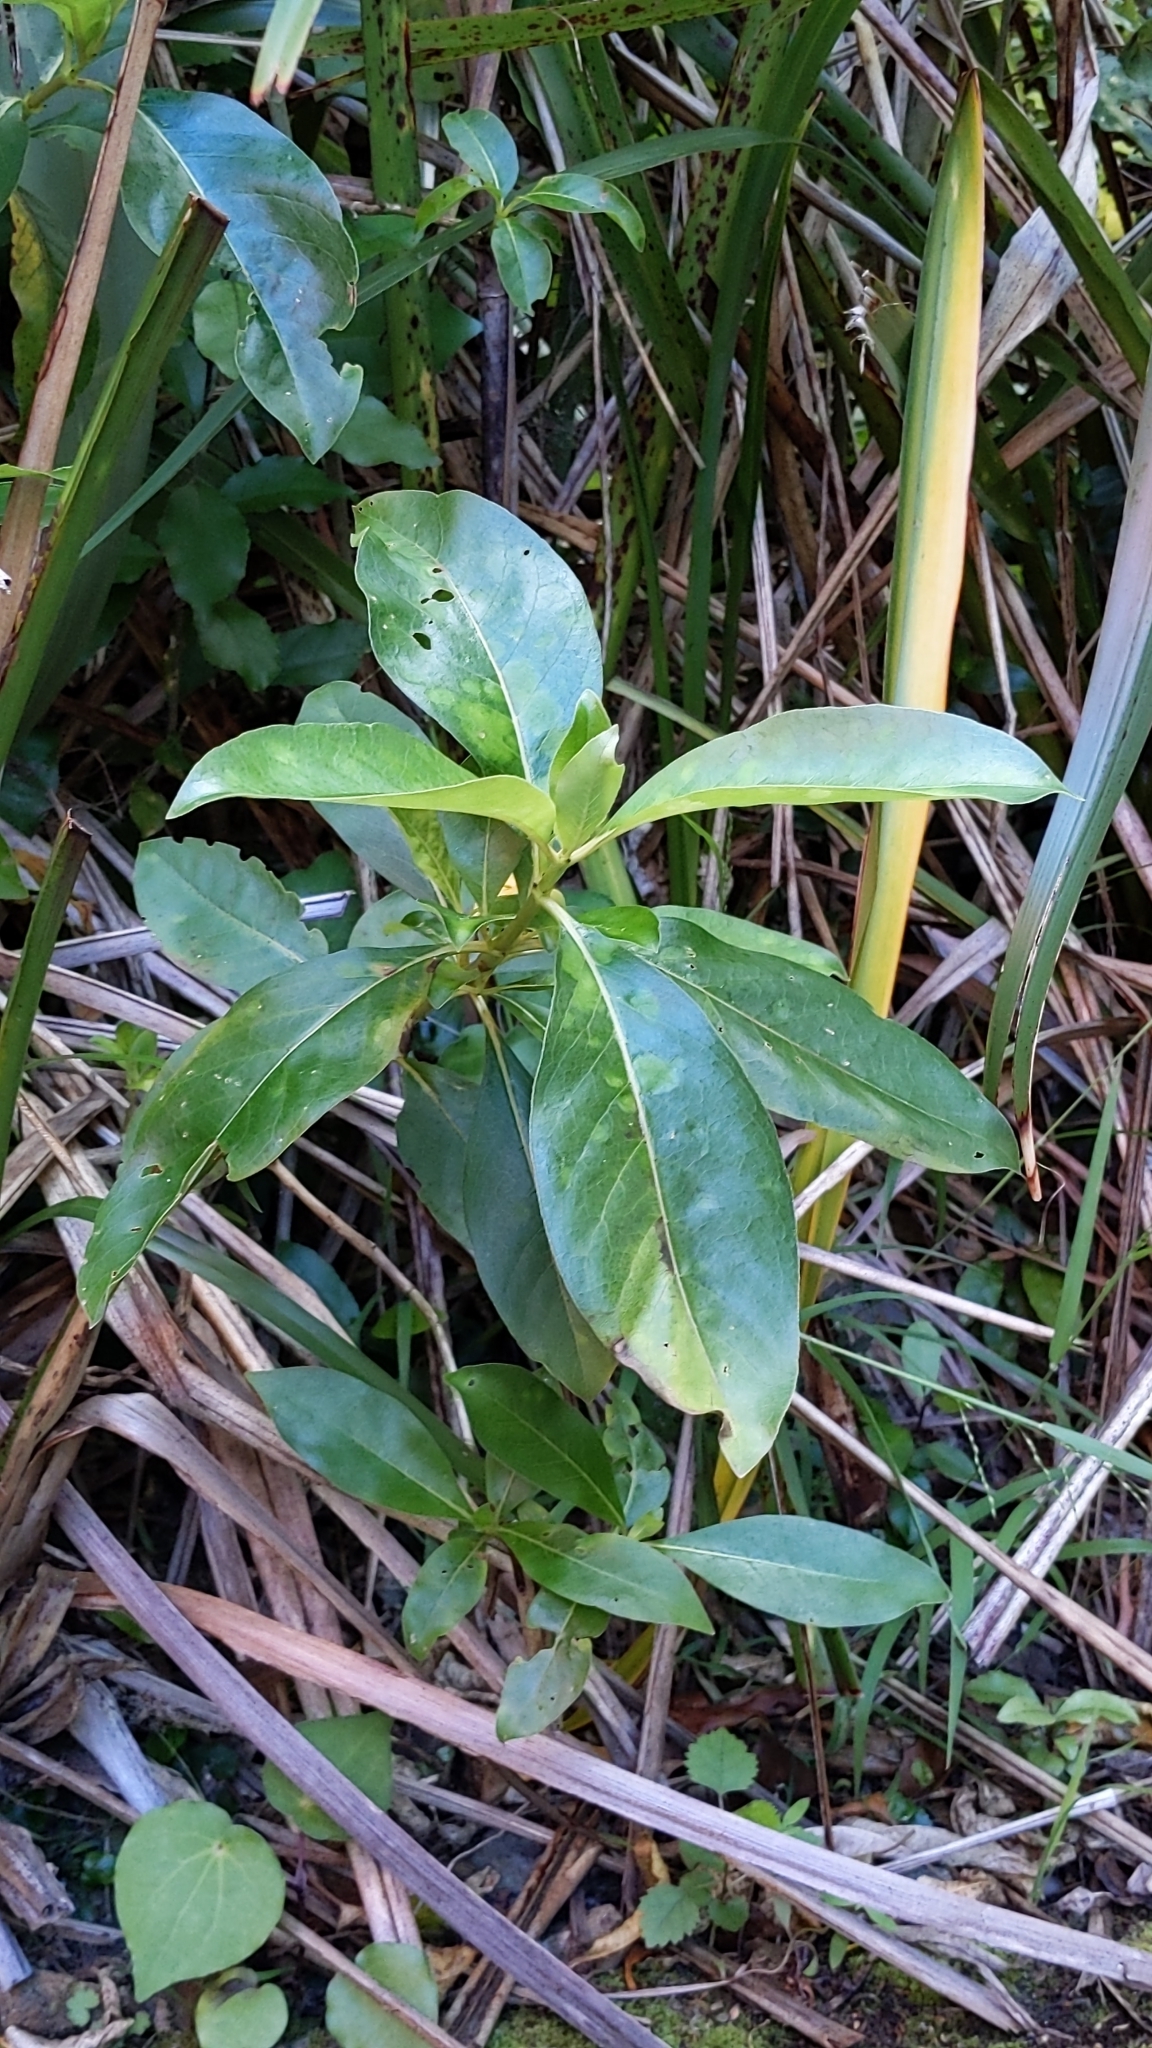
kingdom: Plantae
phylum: Tracheophyta
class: Magnoliopsida
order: Gentianales
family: Rubiaceae
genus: Coprosma
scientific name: Coprosma robusta
